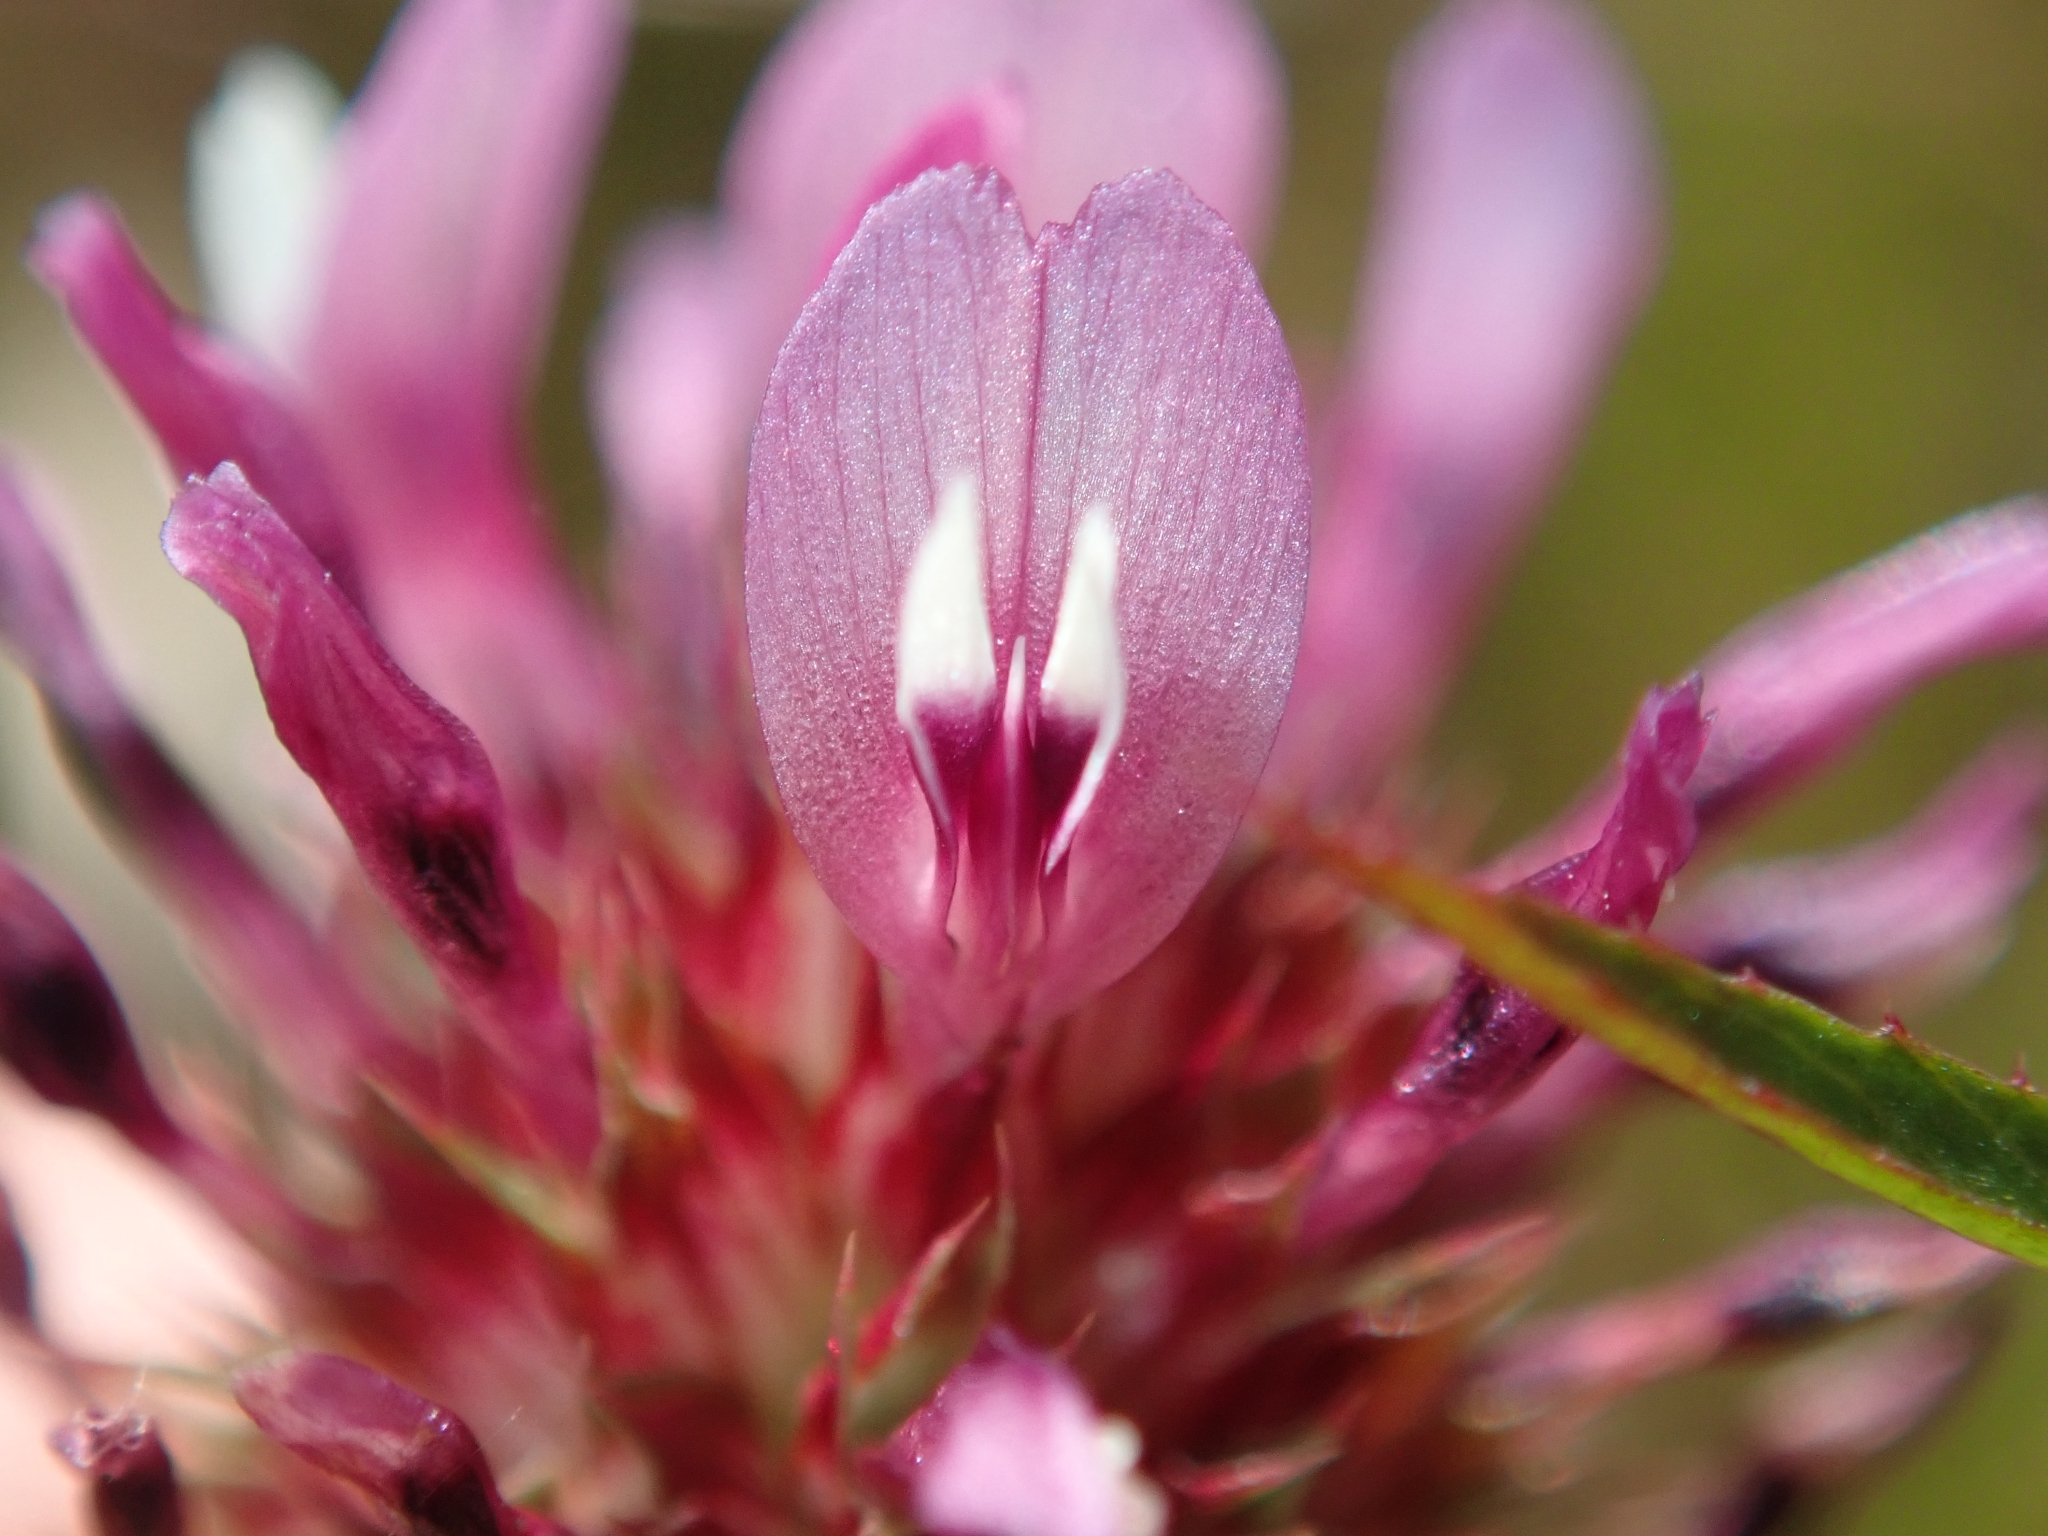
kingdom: Plantae
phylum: Tracheophyta
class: Magnoliopsida
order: Fabales
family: Fabaceae
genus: Trifolium
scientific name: Trifolium willdenovii
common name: Tomcat clover
